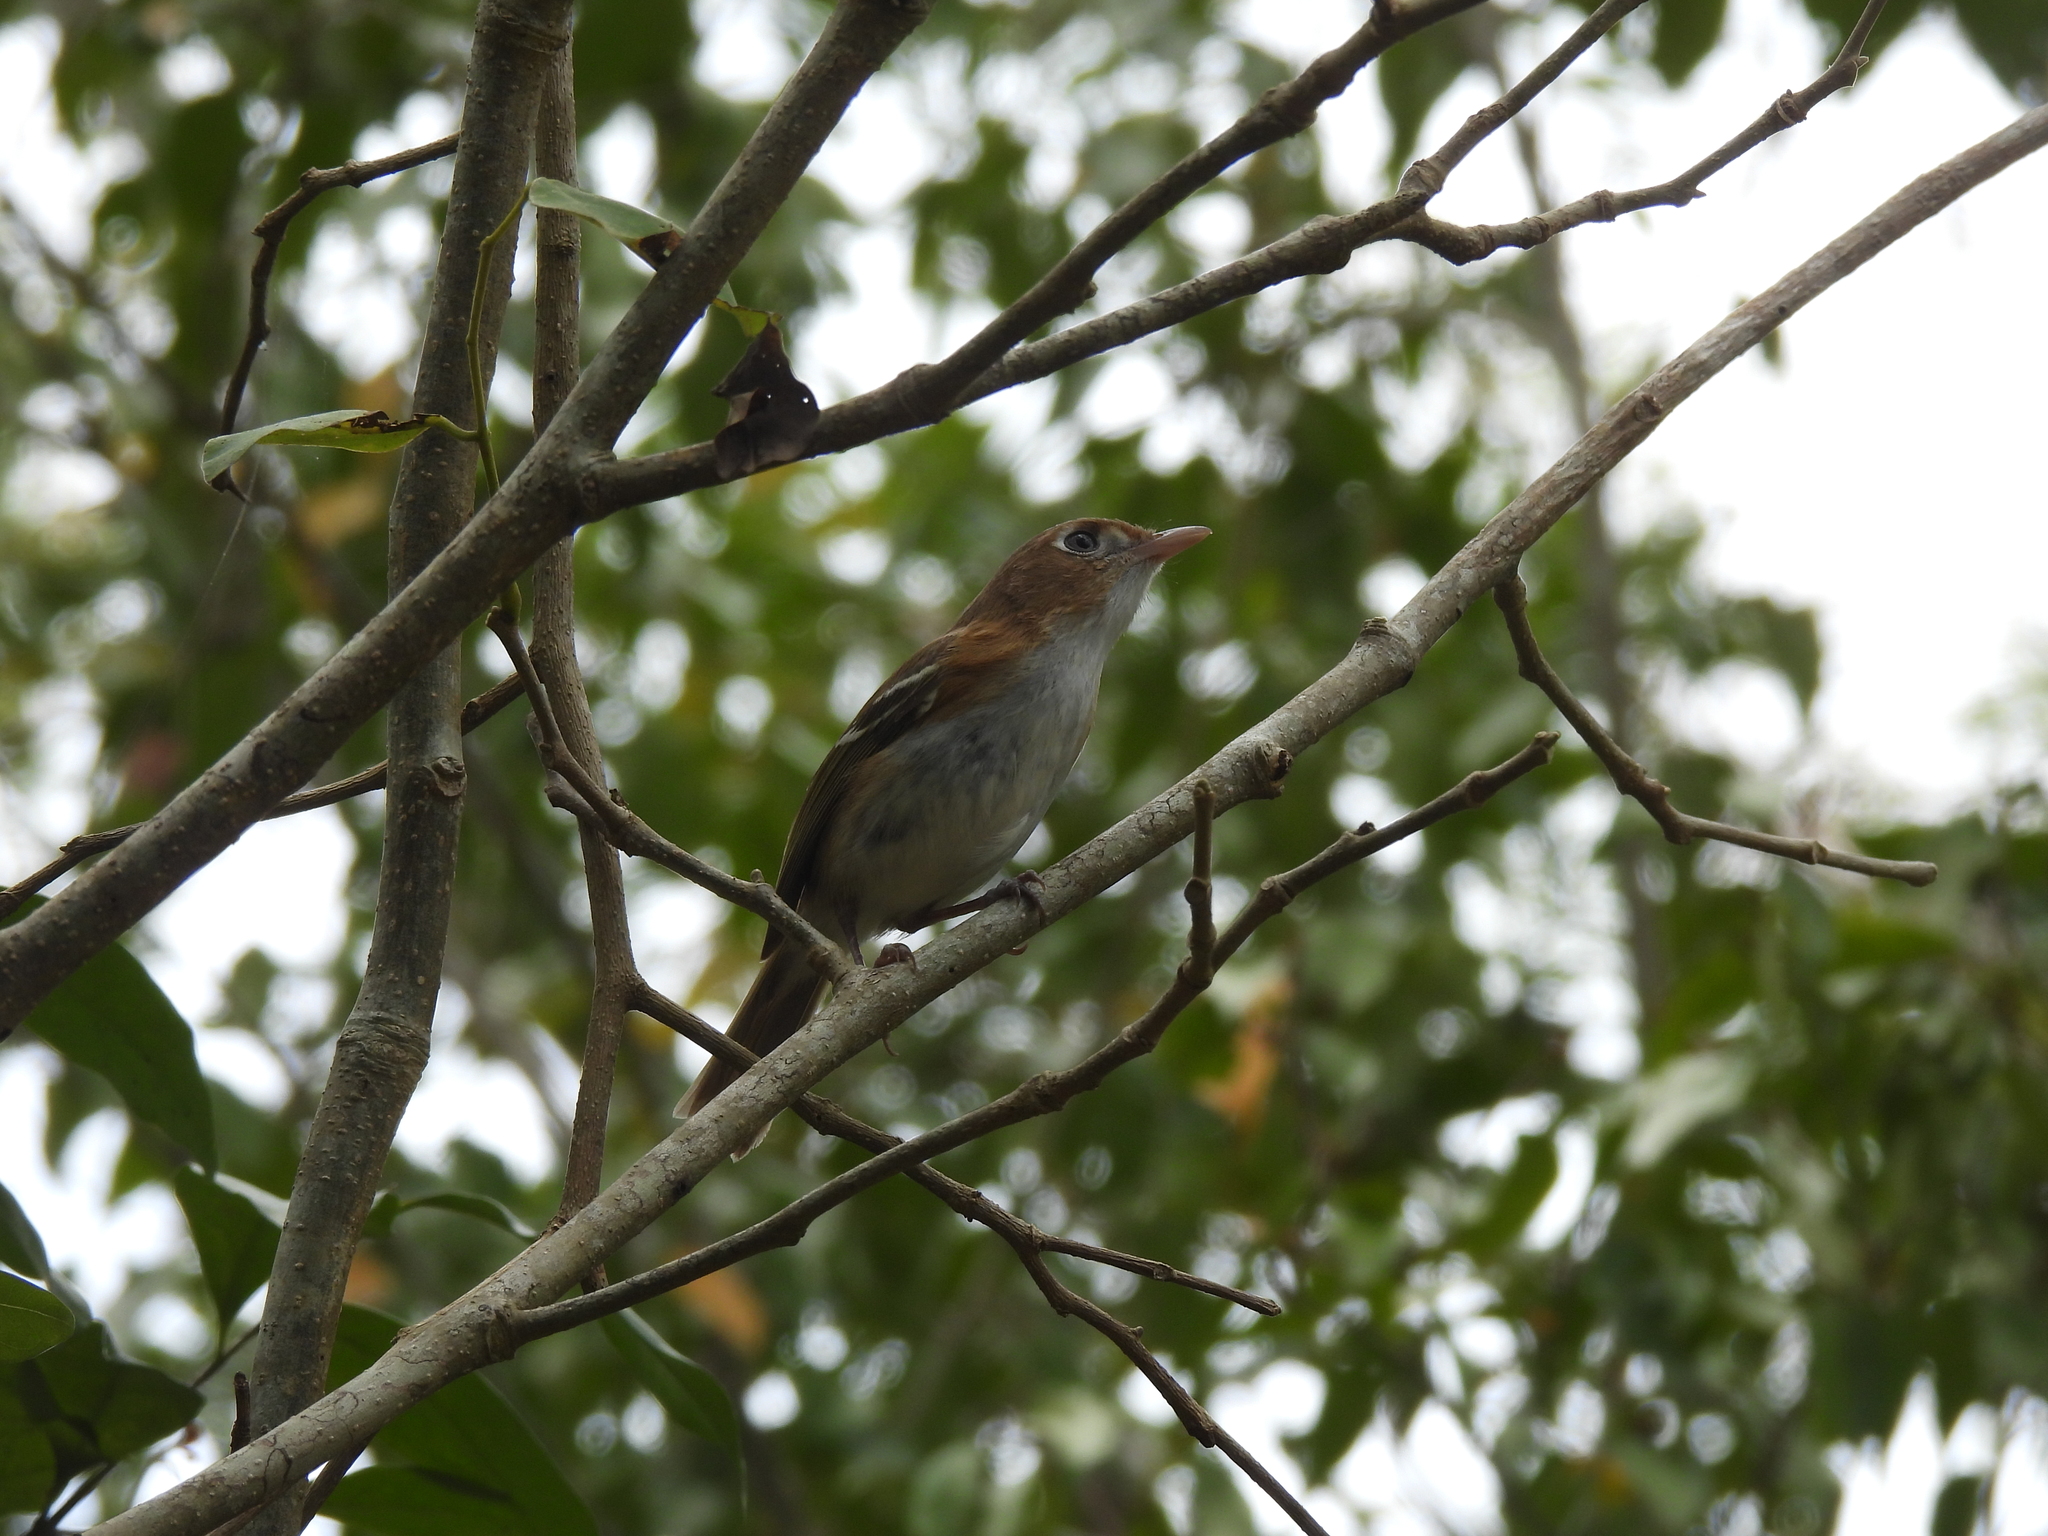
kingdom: Animalia
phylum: Chordata
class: Aves
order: Passeriformes
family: Vireonidae
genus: Vireo
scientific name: Vireo bairdi
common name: Cozumel vireo
